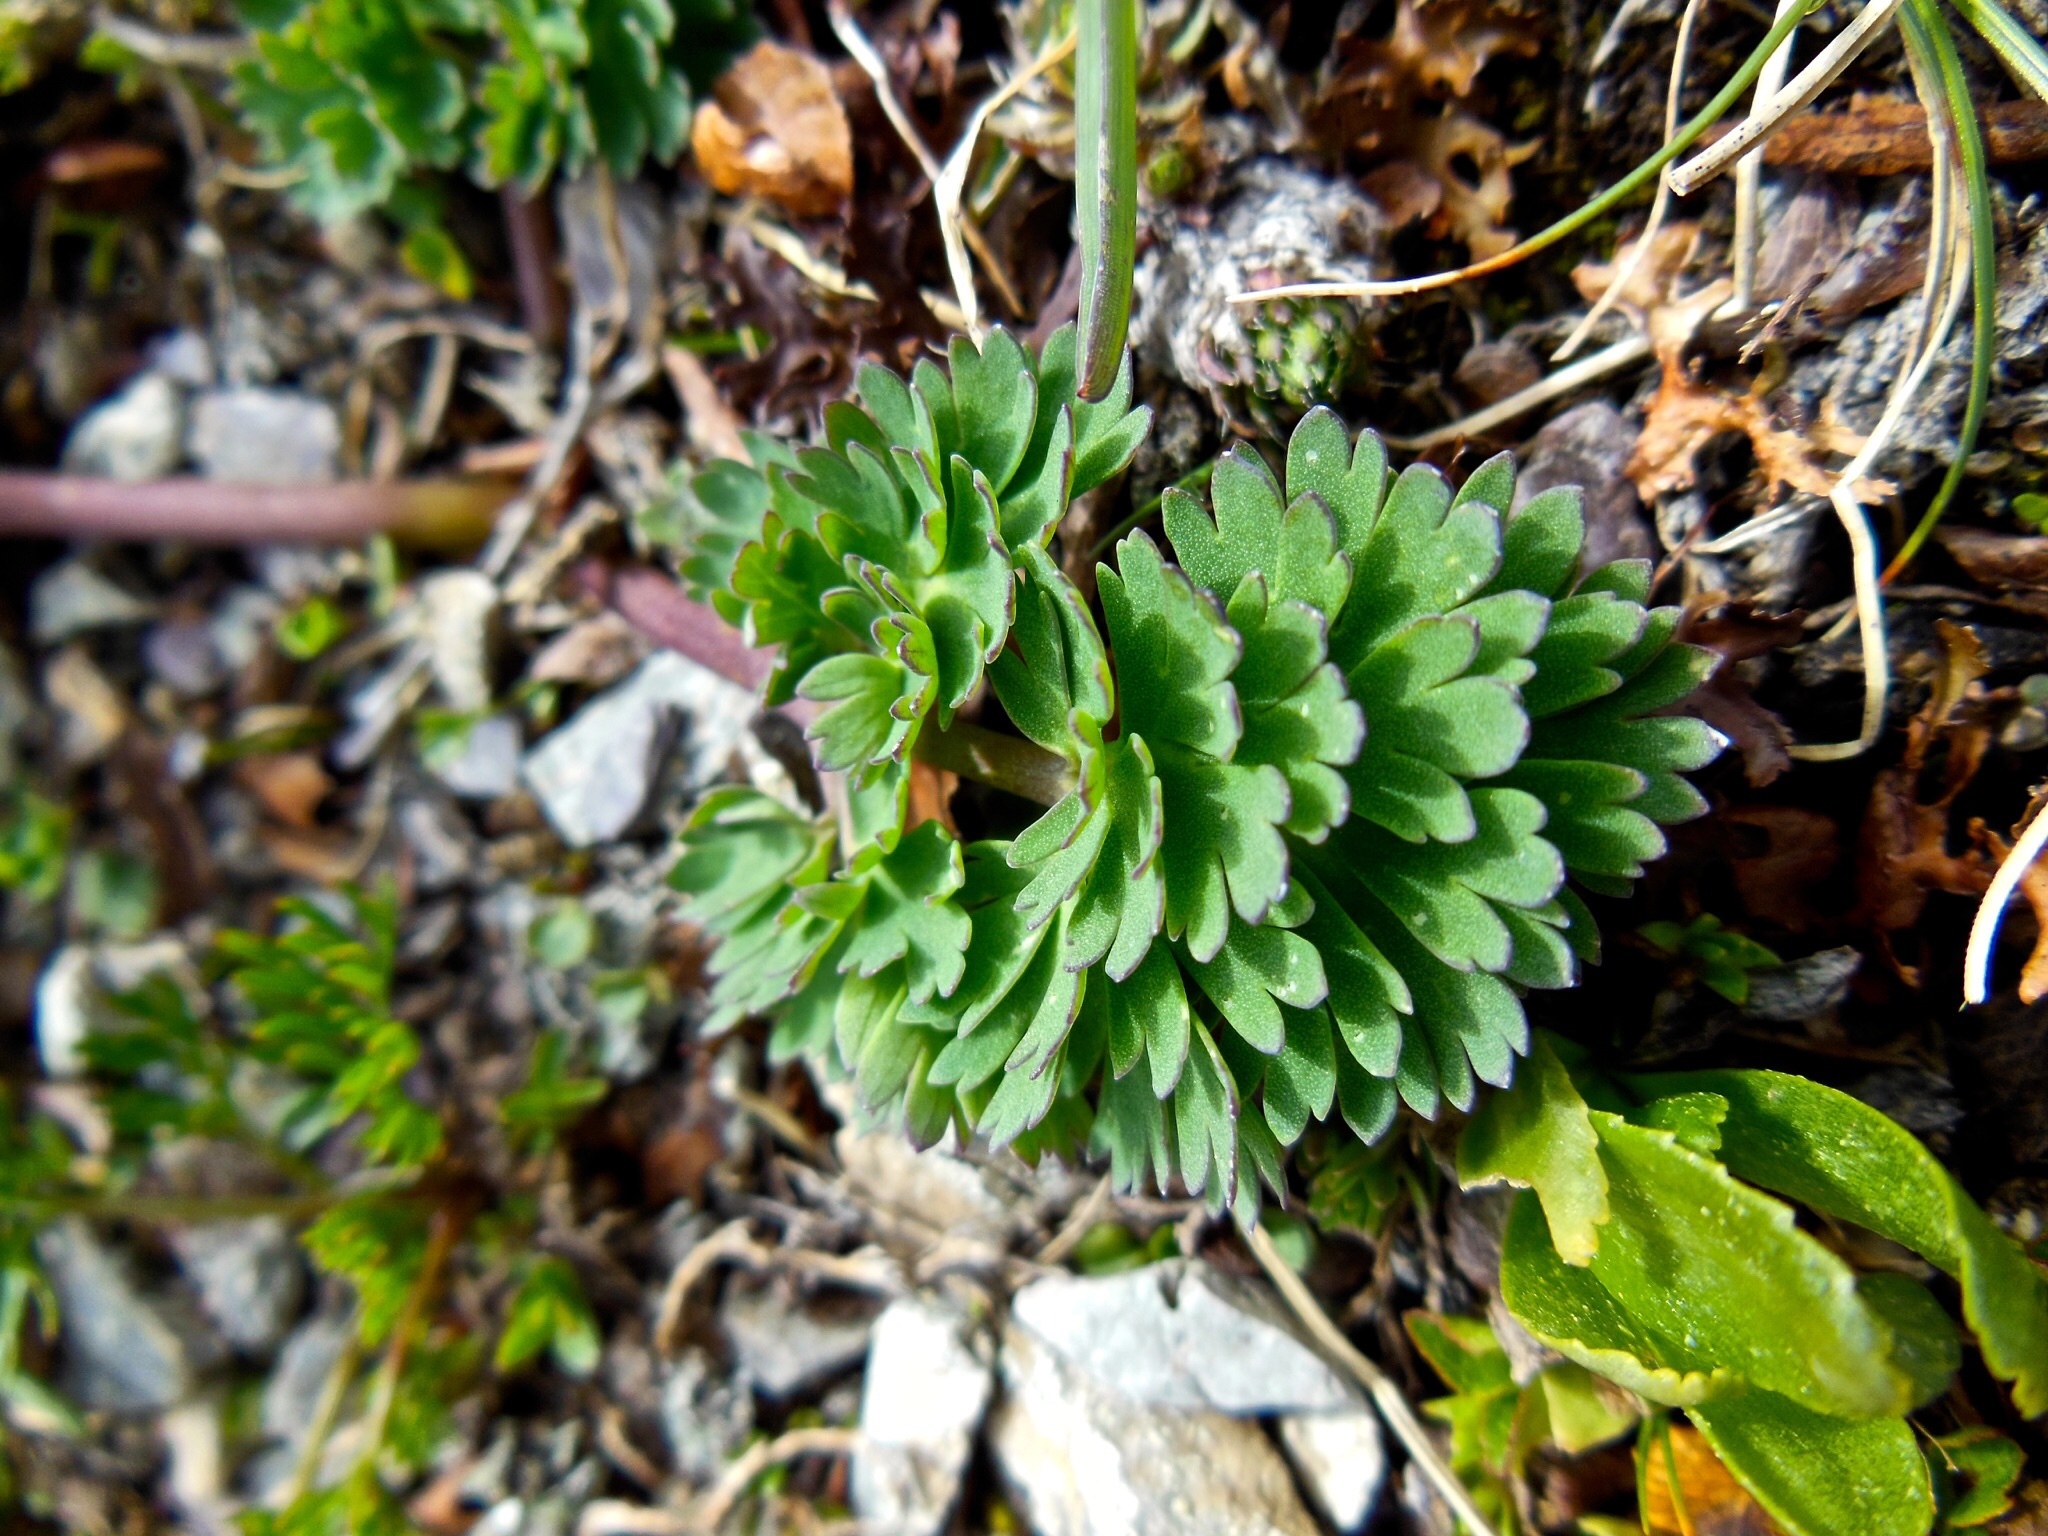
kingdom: Plantae
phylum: Tracheophyta
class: Magnoliopsida
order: Ranunculales
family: Ranunculaceae
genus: Callianthemum
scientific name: Callianthemum coriandrifolium
